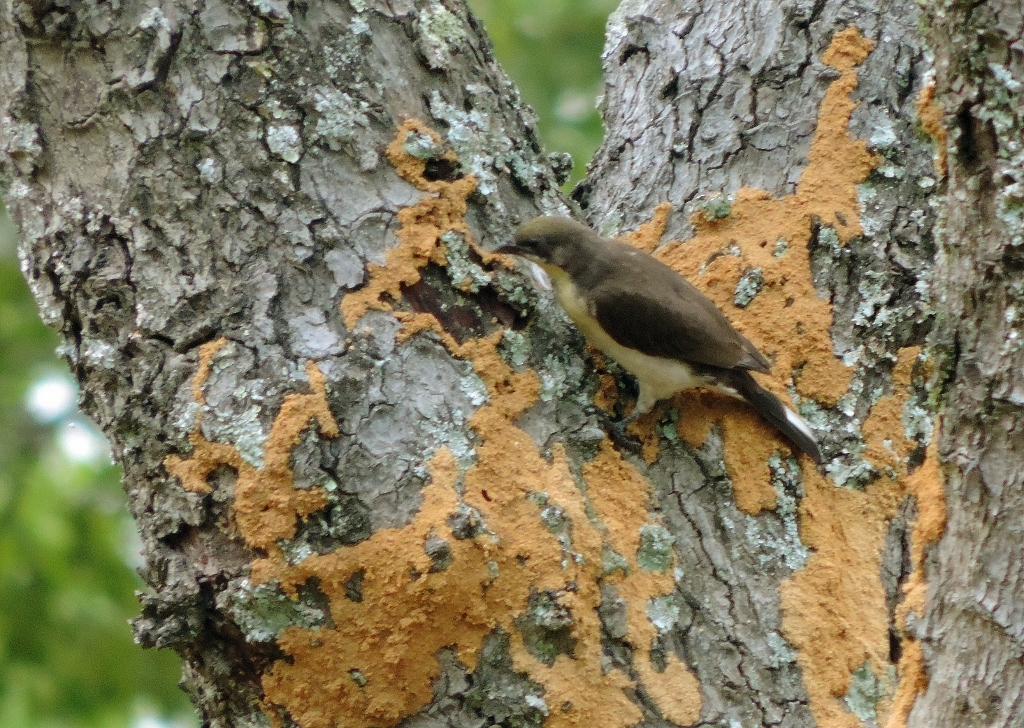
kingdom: Animalia
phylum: Chordata
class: Aves
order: Piciformes
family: Indicatoridae
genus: Indicator
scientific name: Indicator indicator
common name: Greater honeyguide
